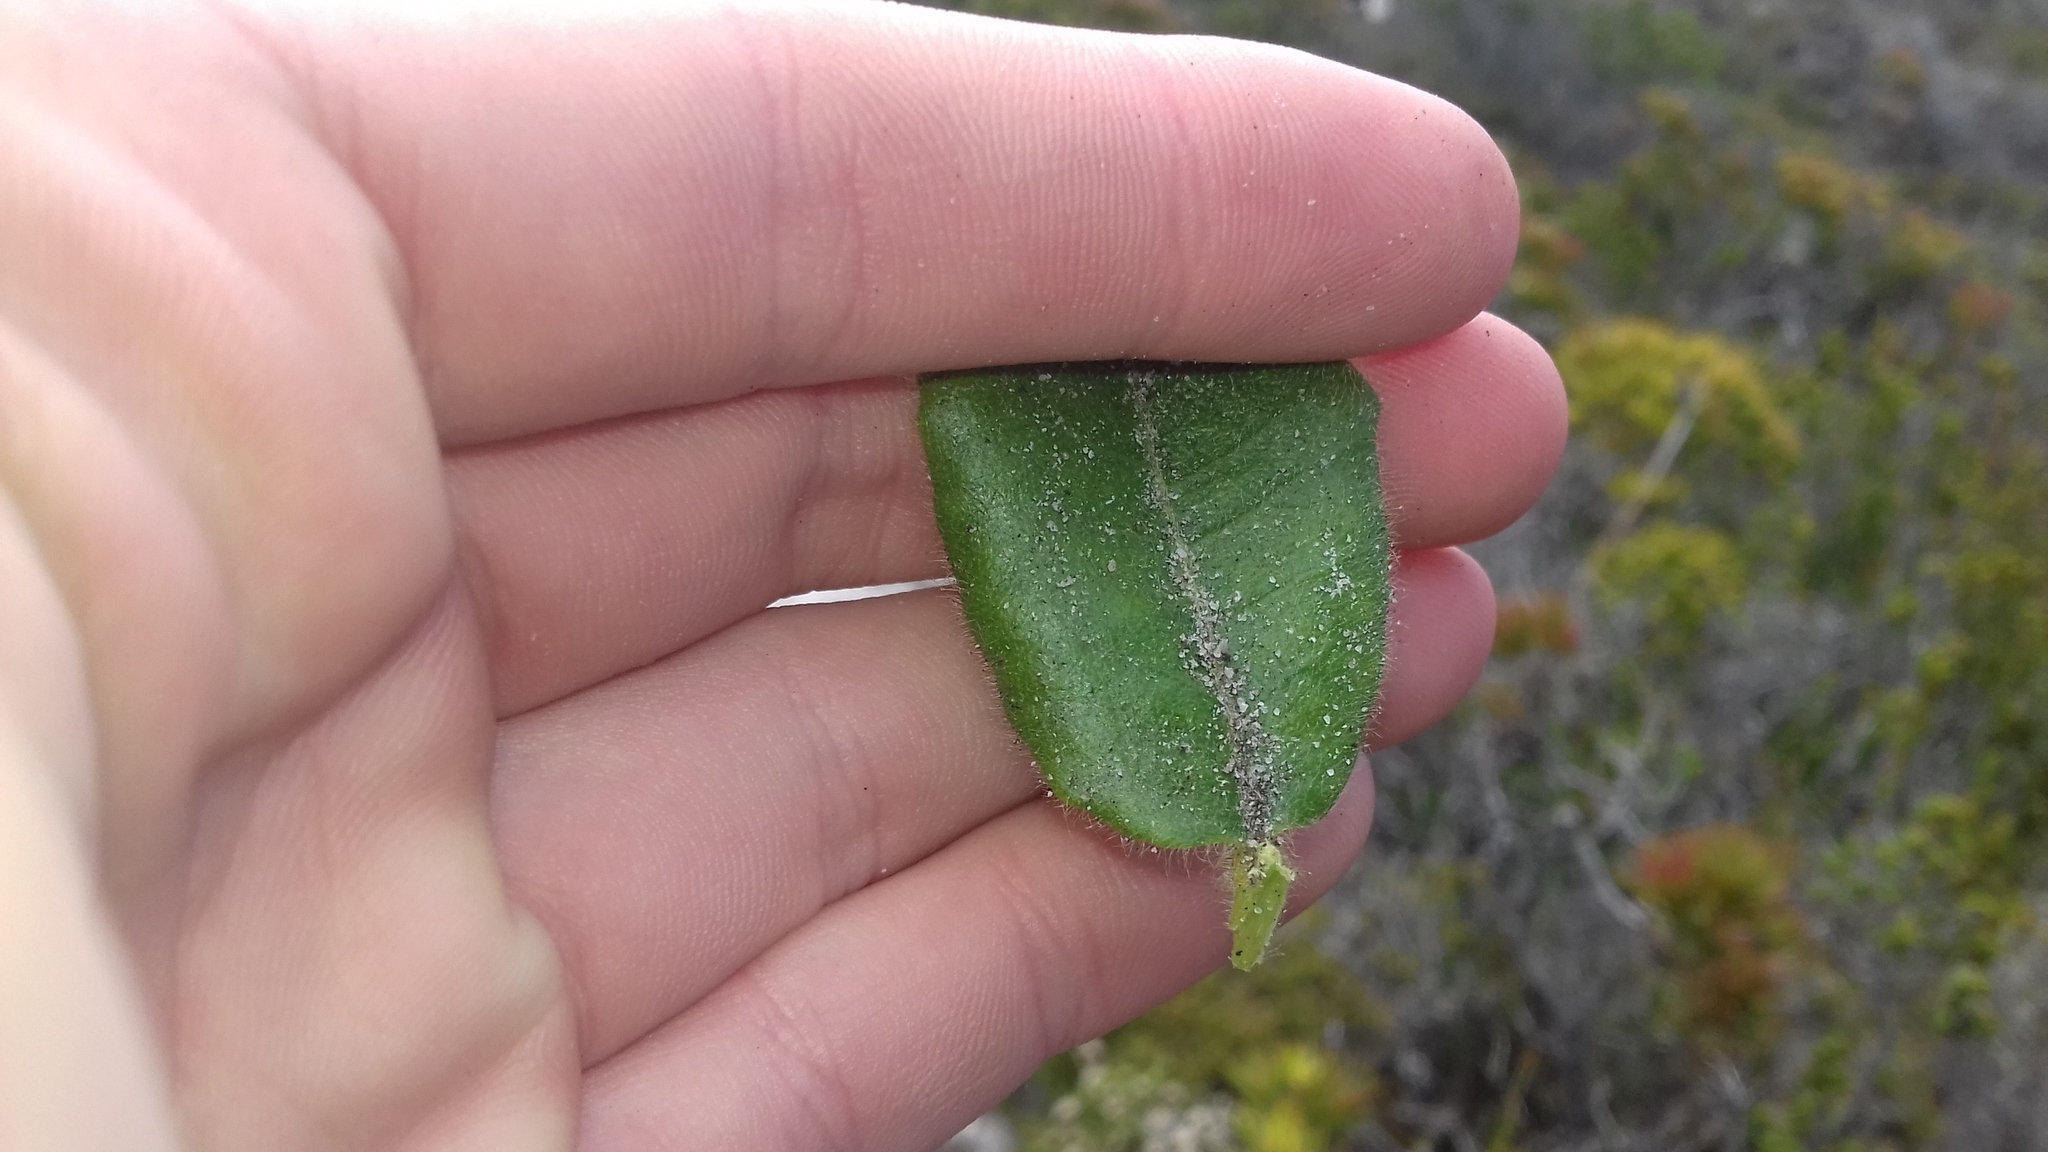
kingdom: Plantae
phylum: Tracheophyta
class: Magnoliopsida
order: Fagales
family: Myricaceae
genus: Morella
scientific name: Morella kraussiana
